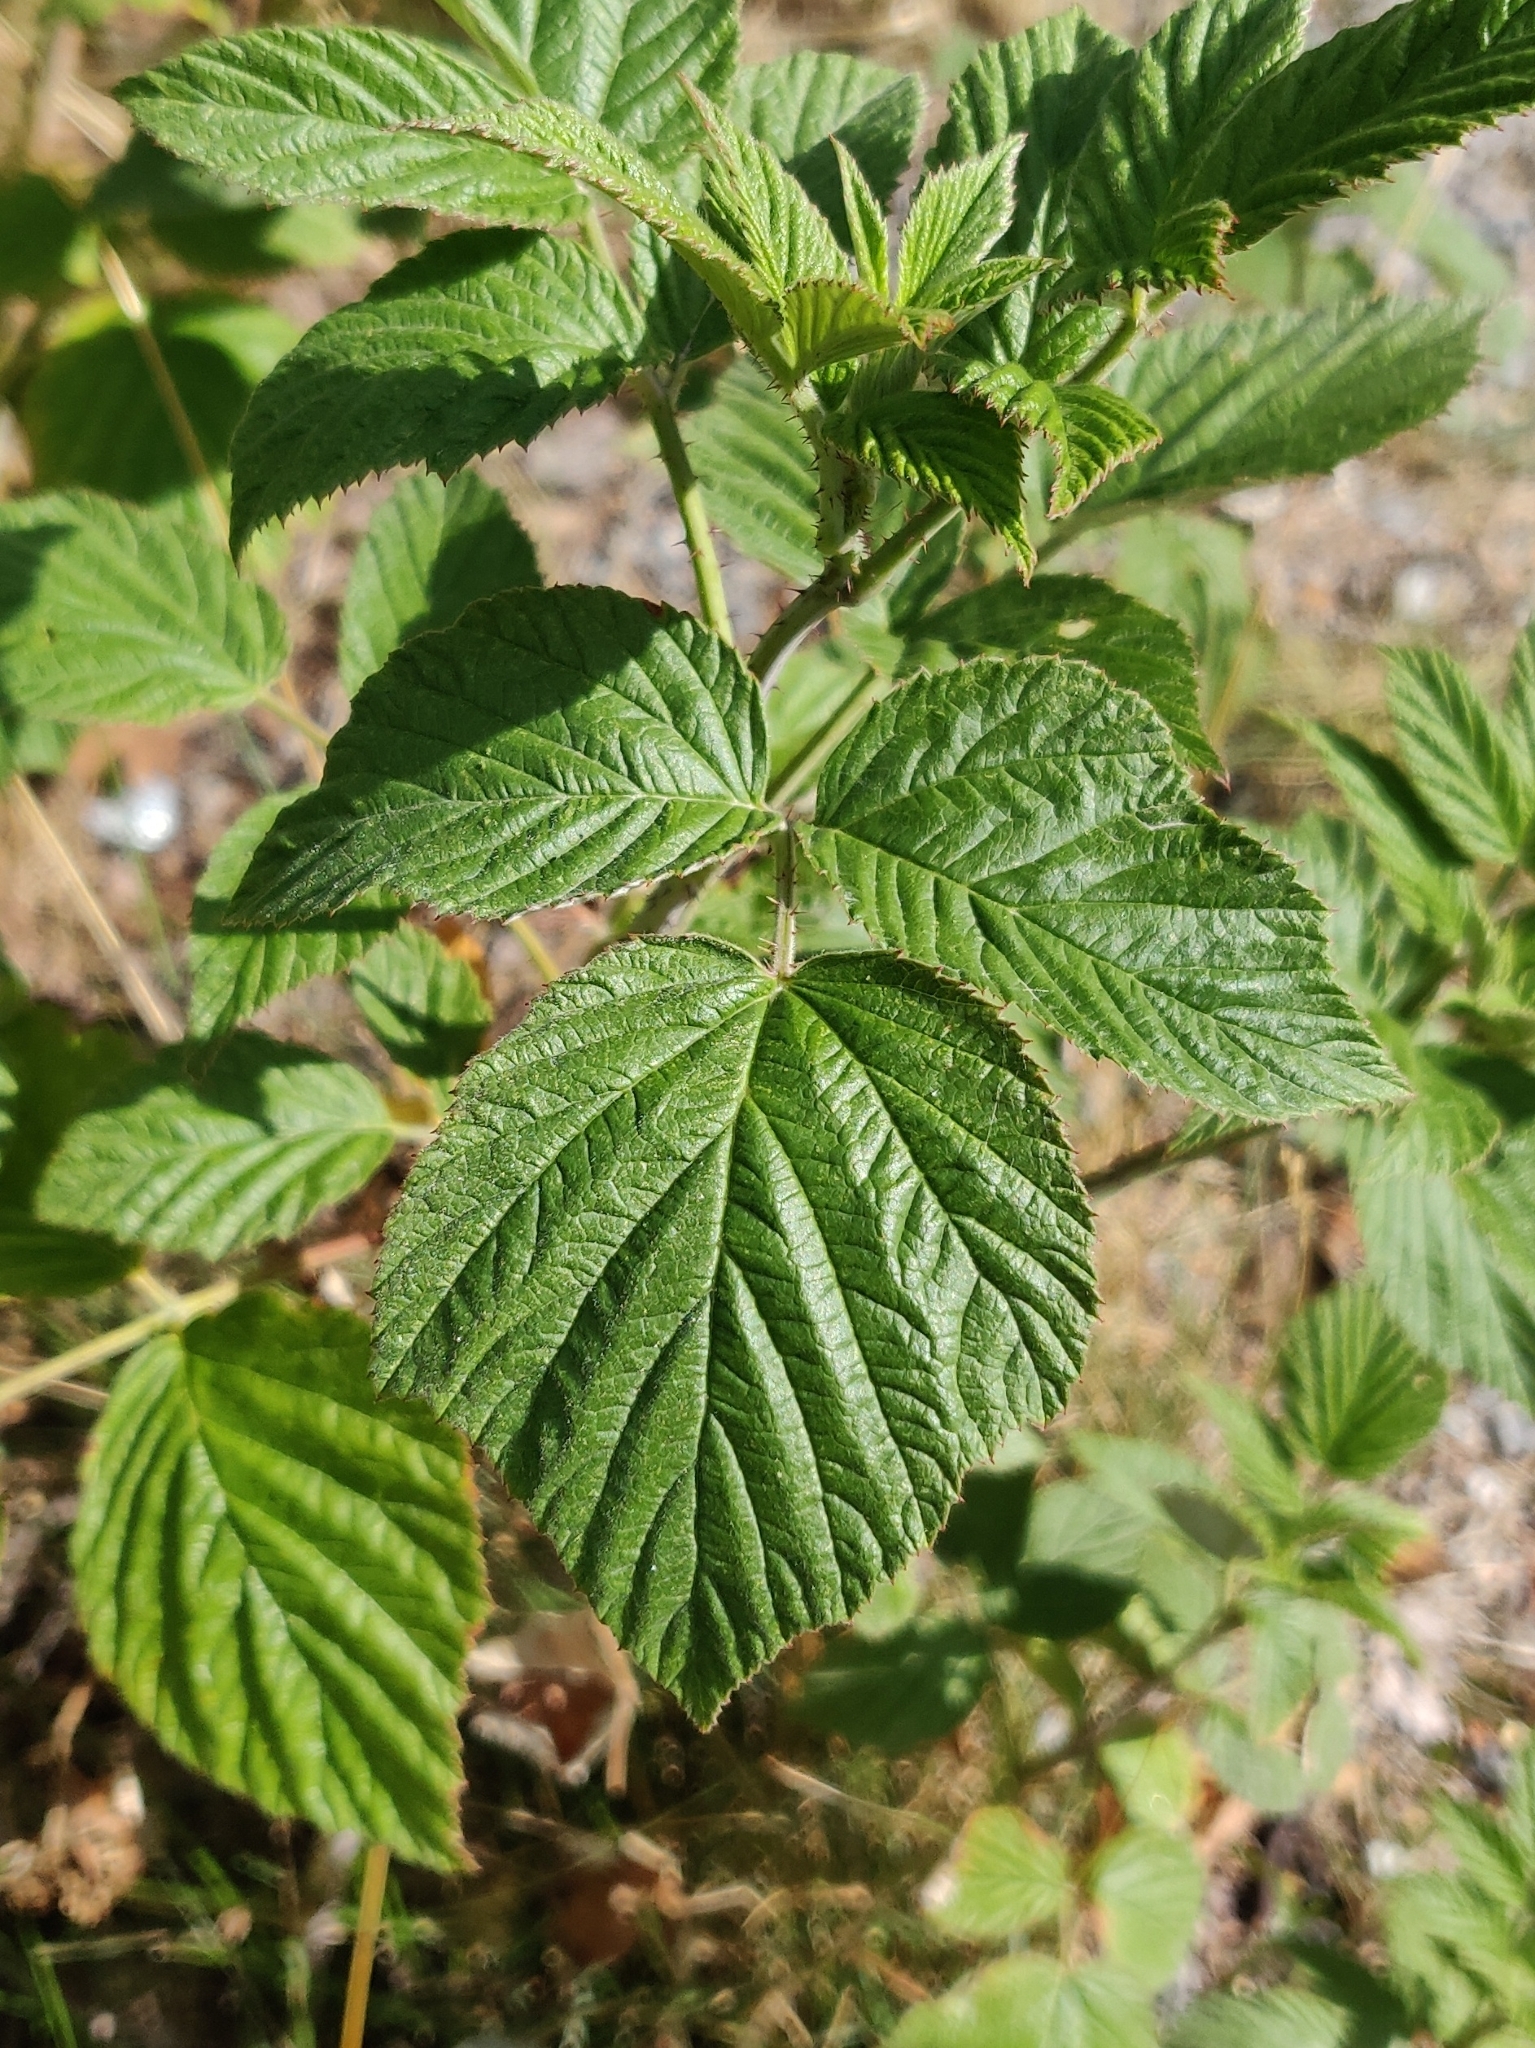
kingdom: Plantae
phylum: Tracheophyta
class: Magnoliopsida
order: Rosales
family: Rosaceae
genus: Rubus
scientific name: Rubus idaeus
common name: Raspberry
